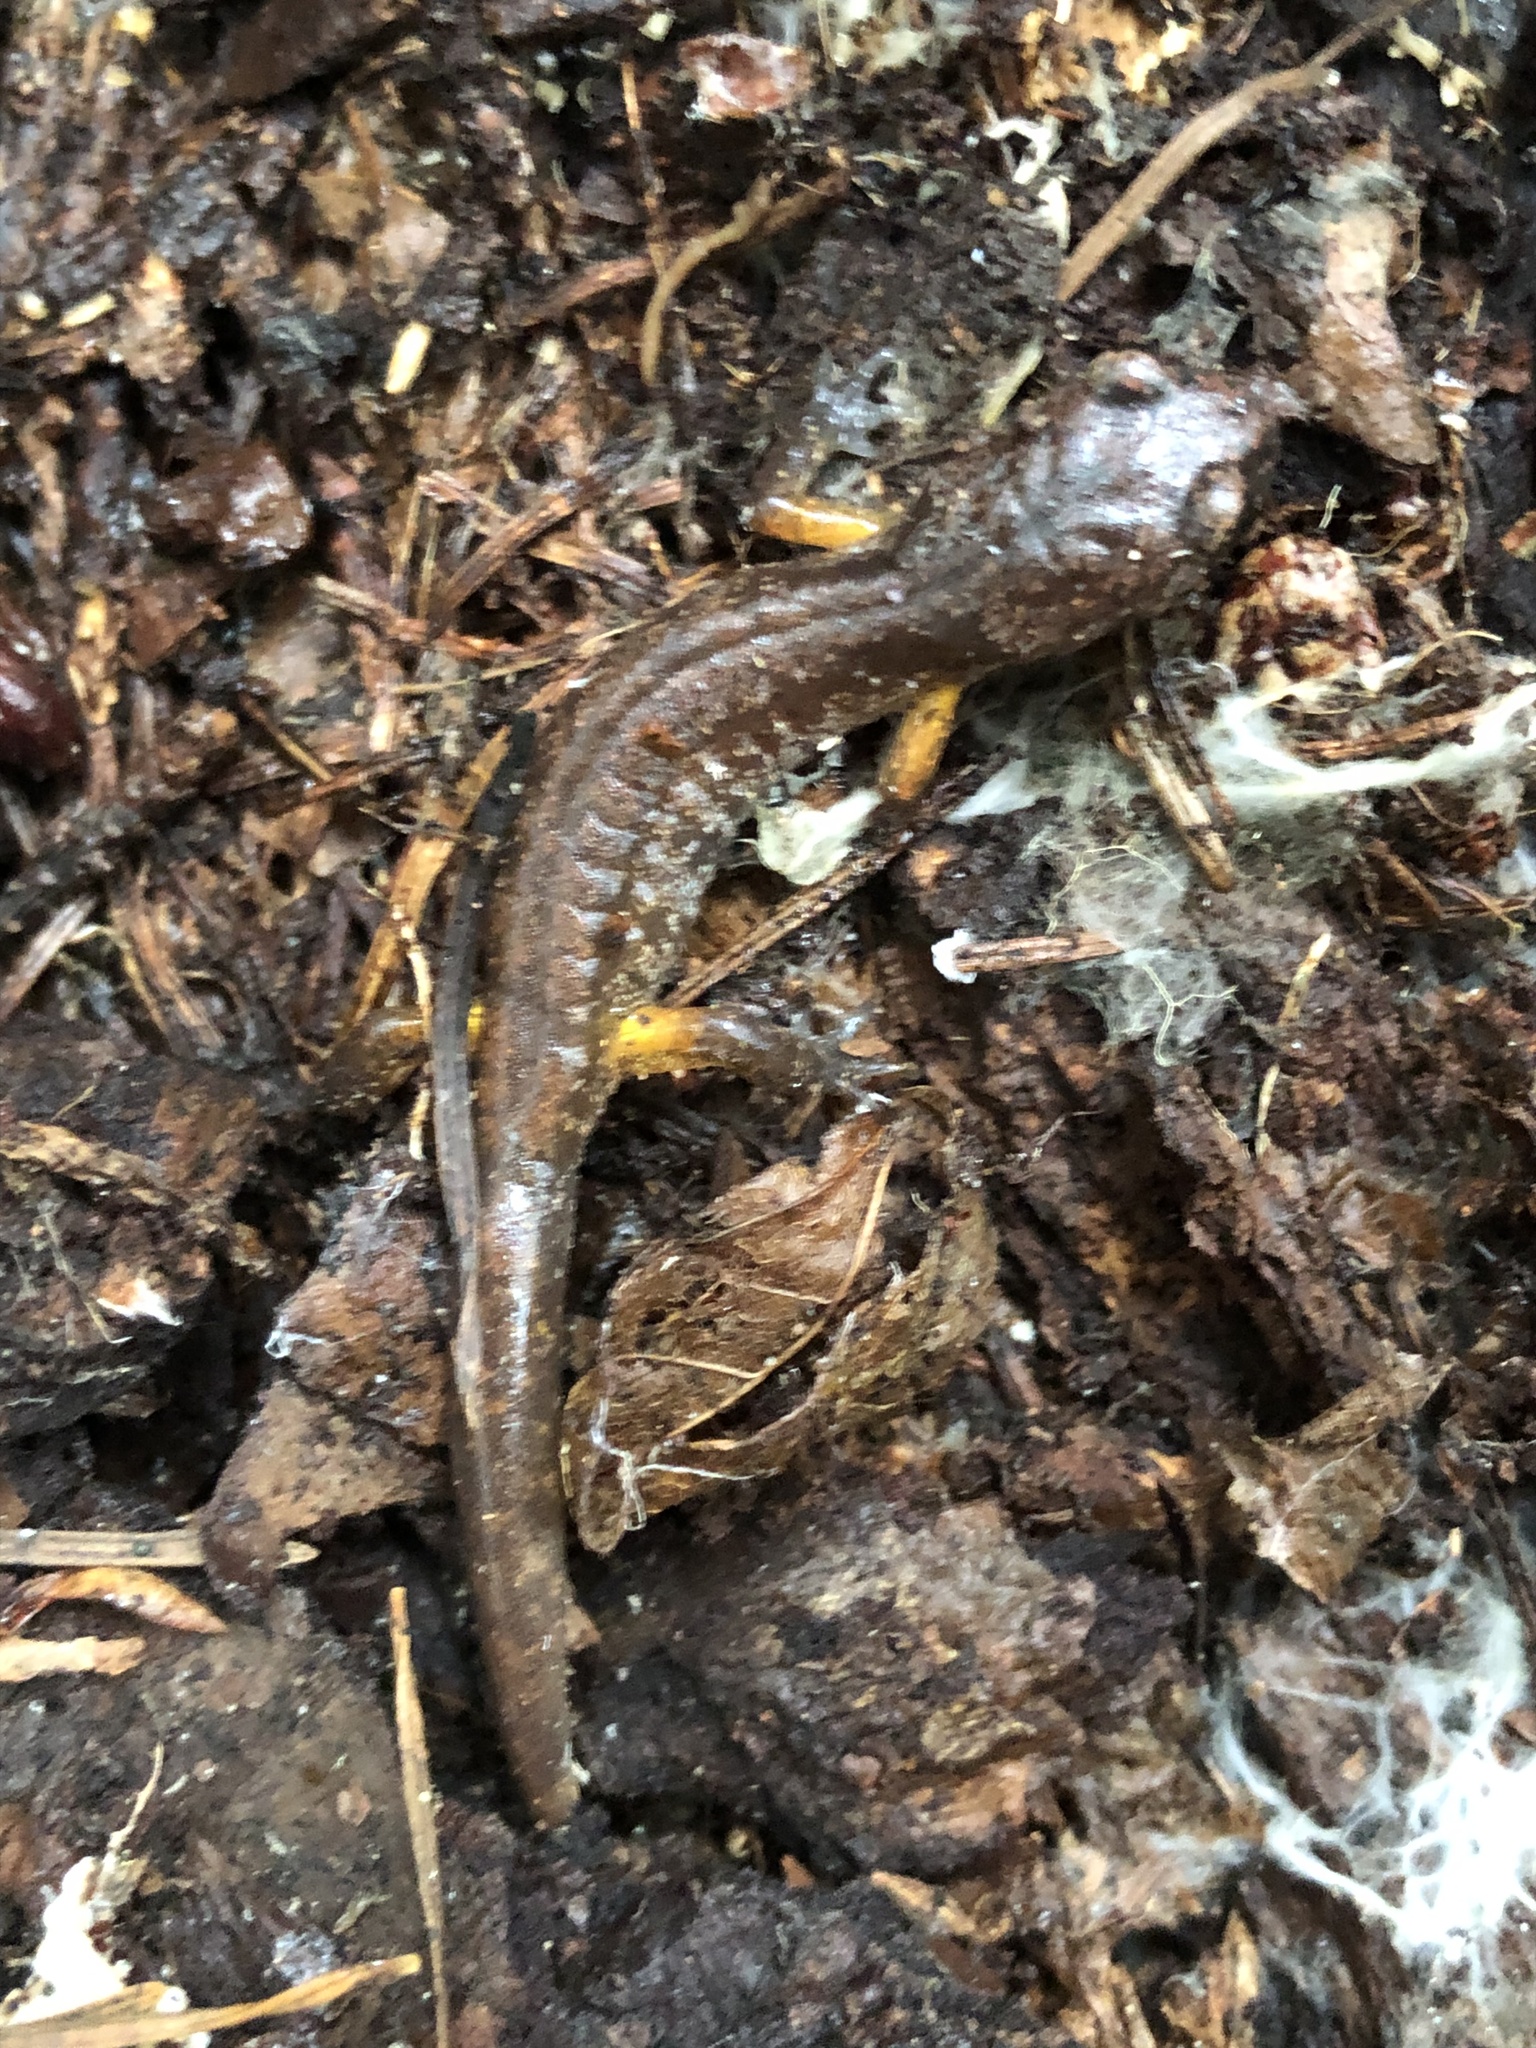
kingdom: Animalia
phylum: Chordata
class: Amphibia
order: Caudata
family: Plethodontidae
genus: Ensatina
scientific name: Ensatina eschscholtzii
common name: Ensatina
